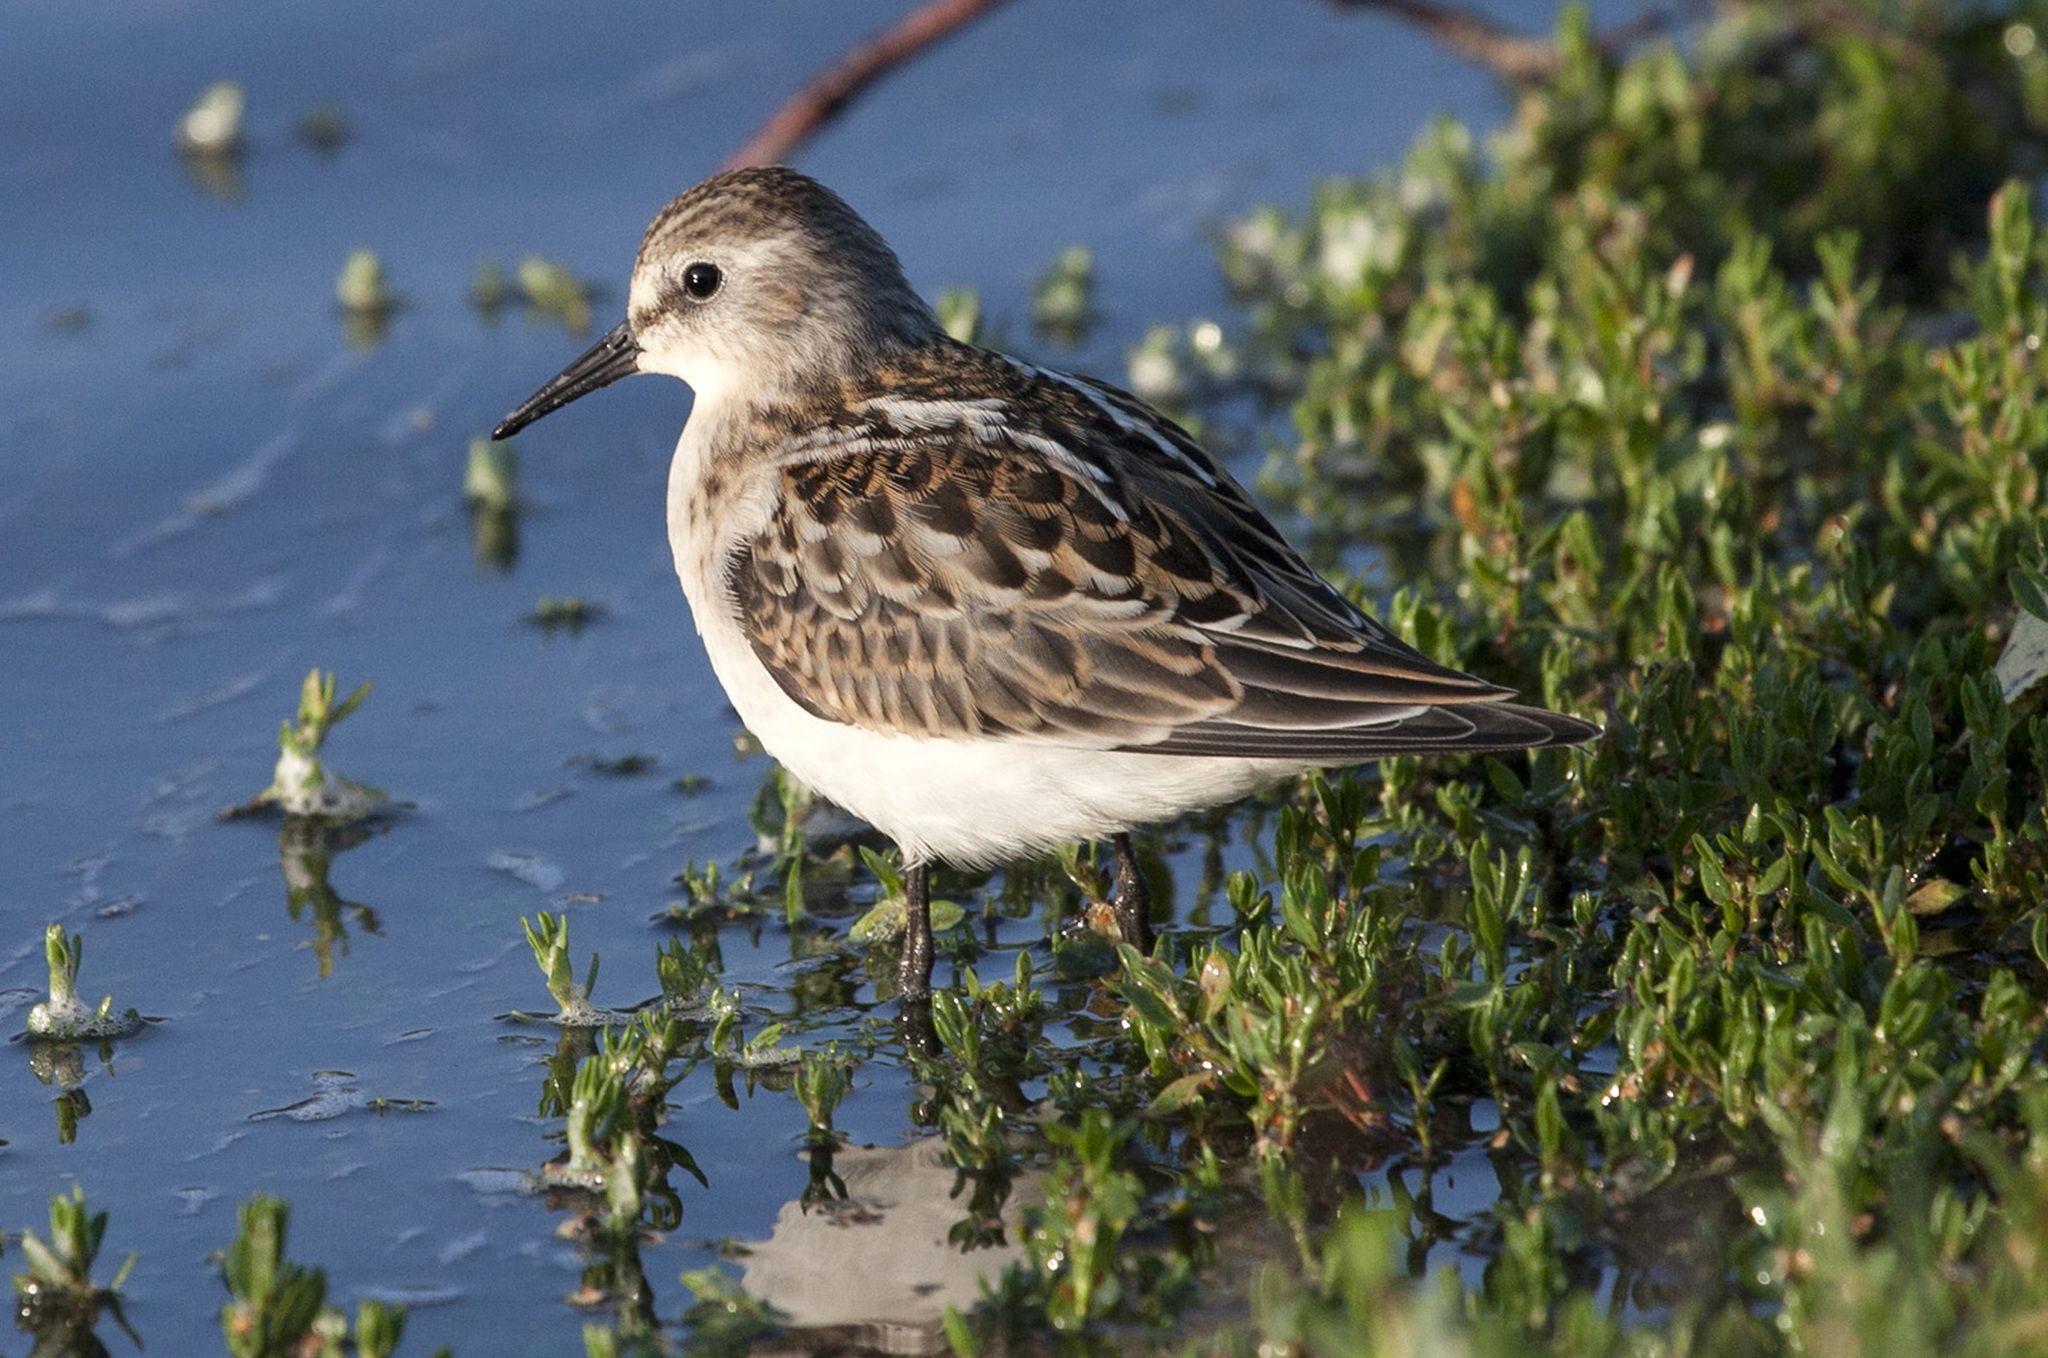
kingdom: Animalia
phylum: Chordata
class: Aves
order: Charadriiformes
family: Scolopacidae
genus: Calidris
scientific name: Calidris minuta
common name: Little stint
